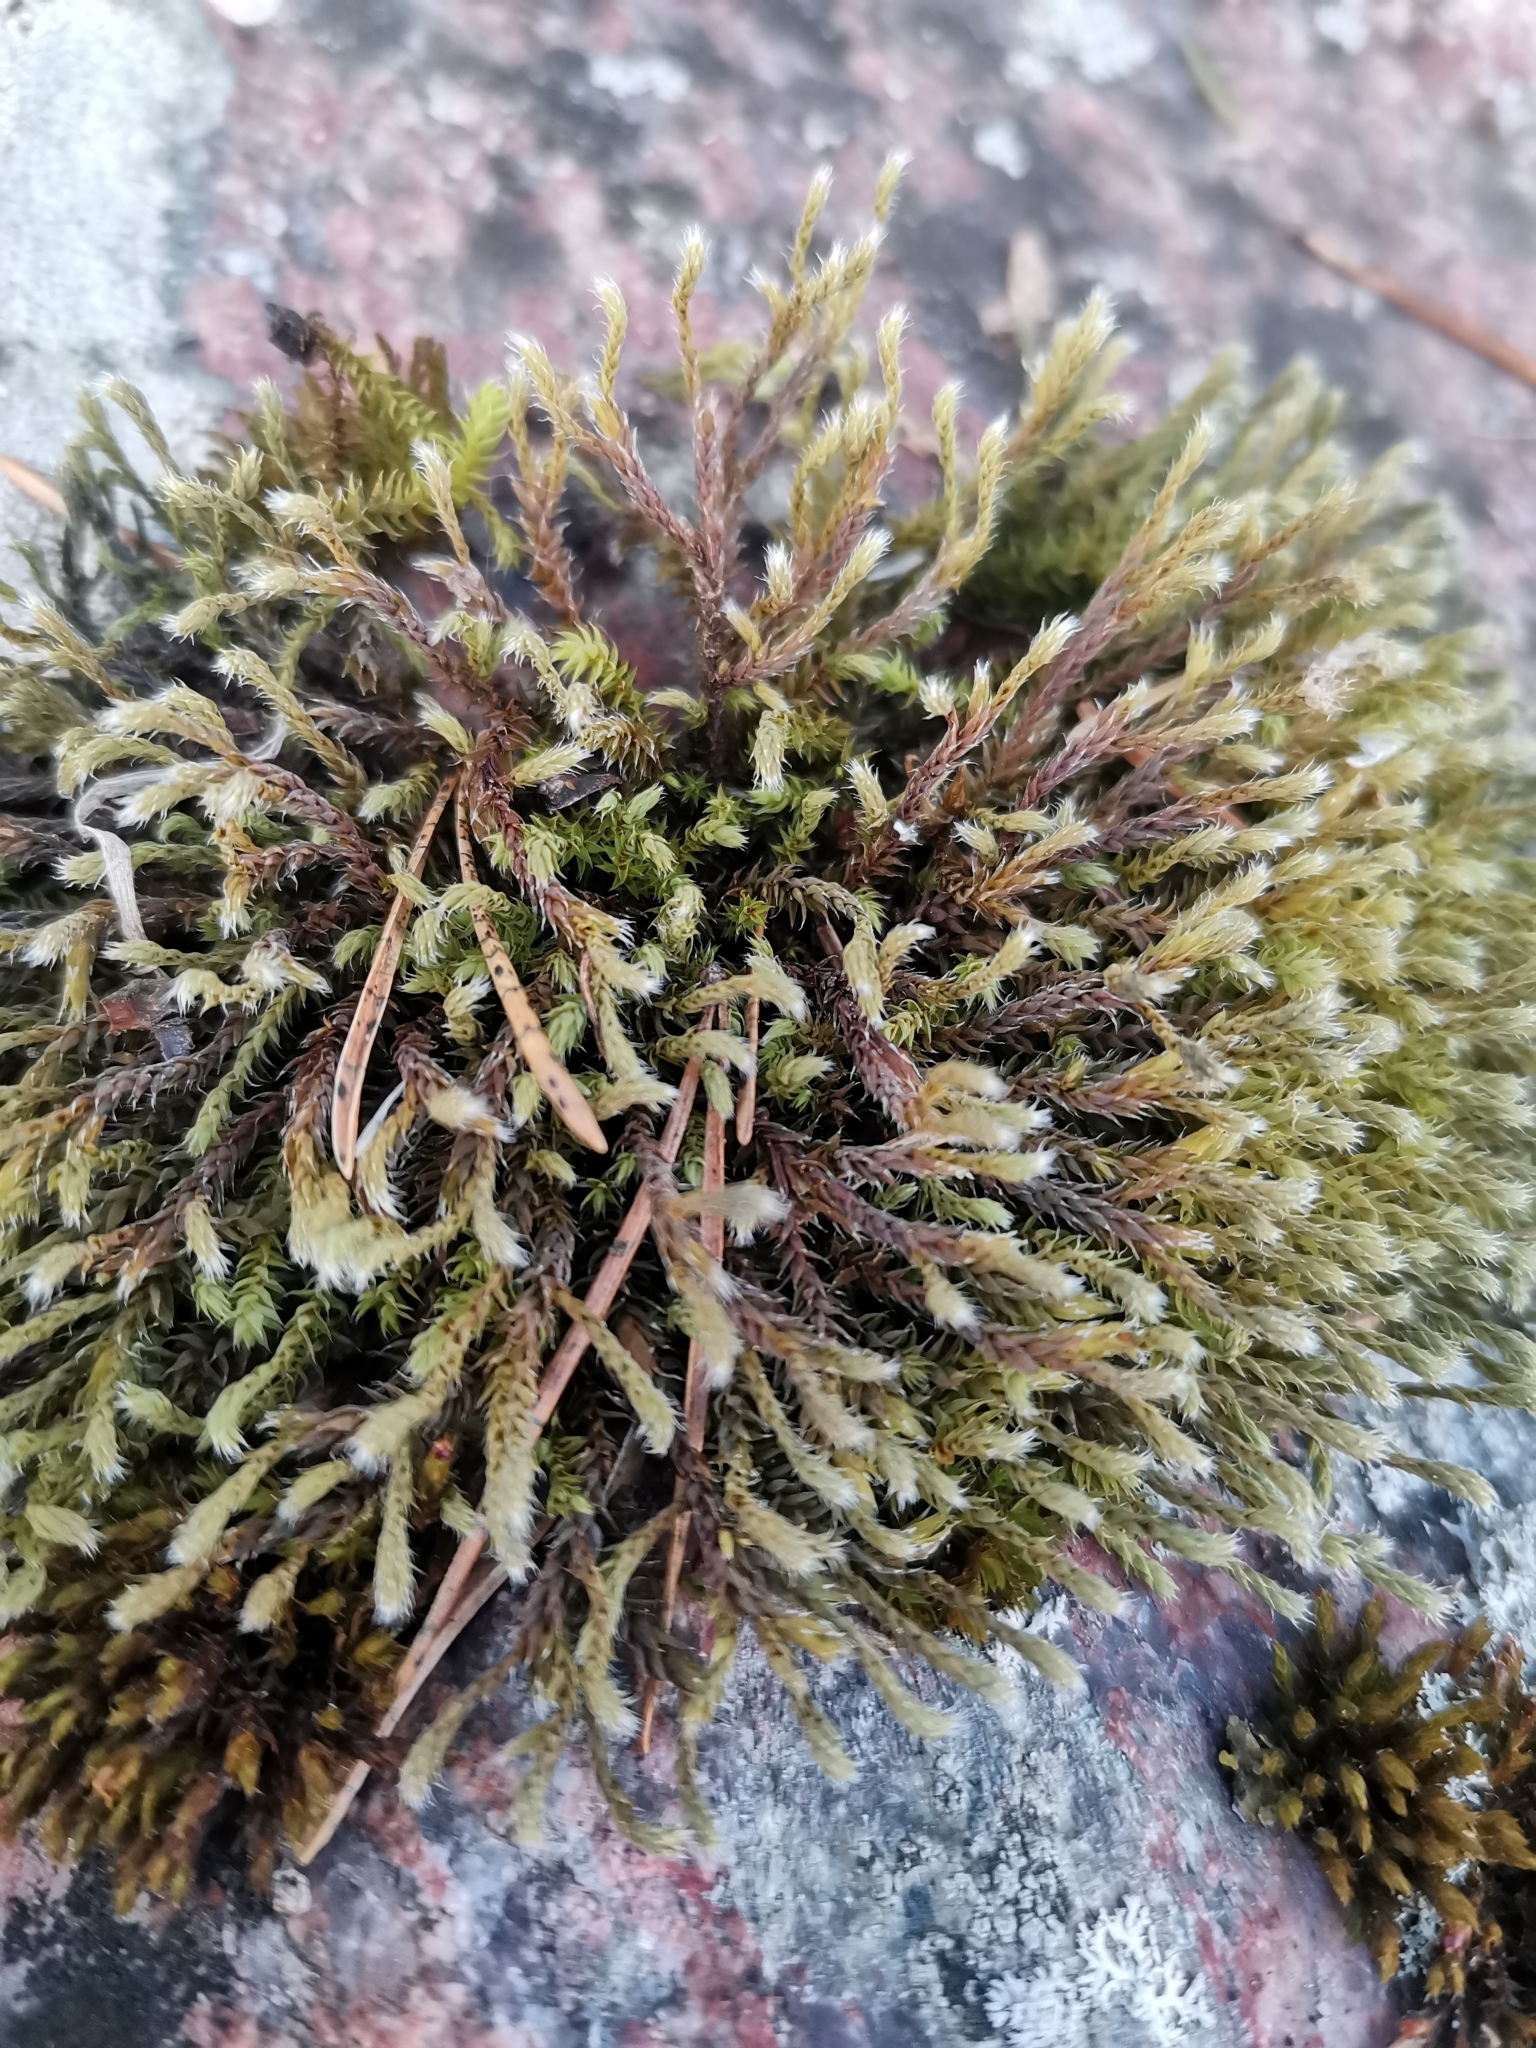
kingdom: Plantae
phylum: Bryophyta
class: Bryopsida
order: Hedwigiales
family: Hedwigiaceae
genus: Hedwigia
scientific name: Hedwigia ciliata
